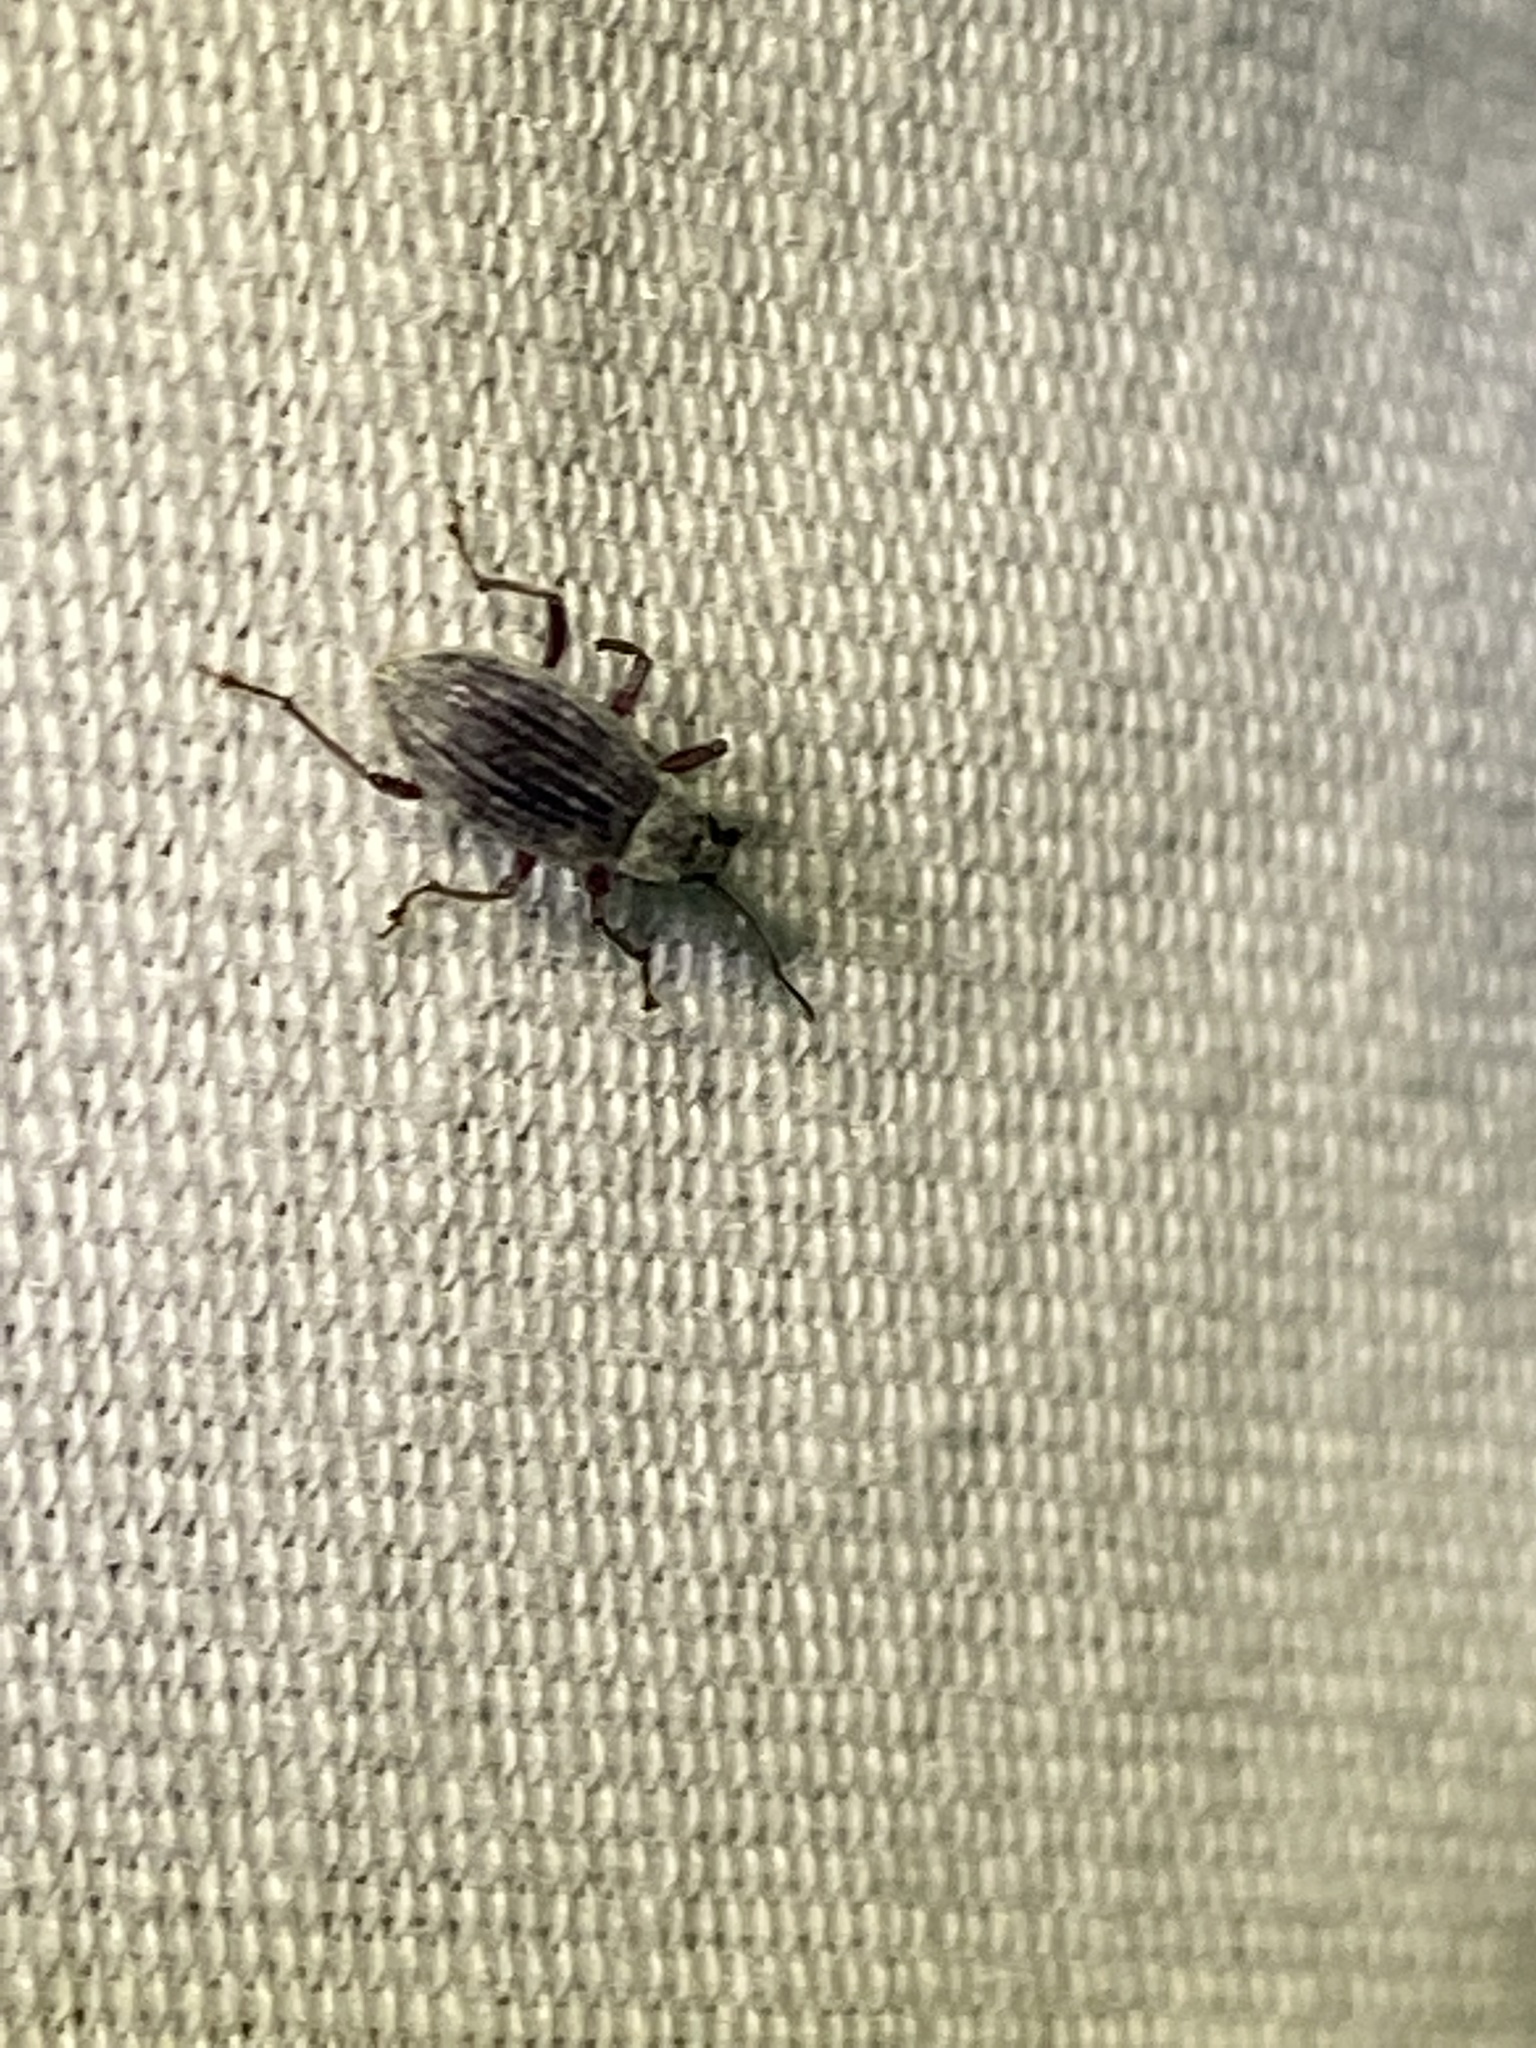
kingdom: Animalia
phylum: Arthropoda
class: Insecta
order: Coleoptera
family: Curculionidae
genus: Cyrtepistomus
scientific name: Cyrtepistomus castaneus
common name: Weevil
